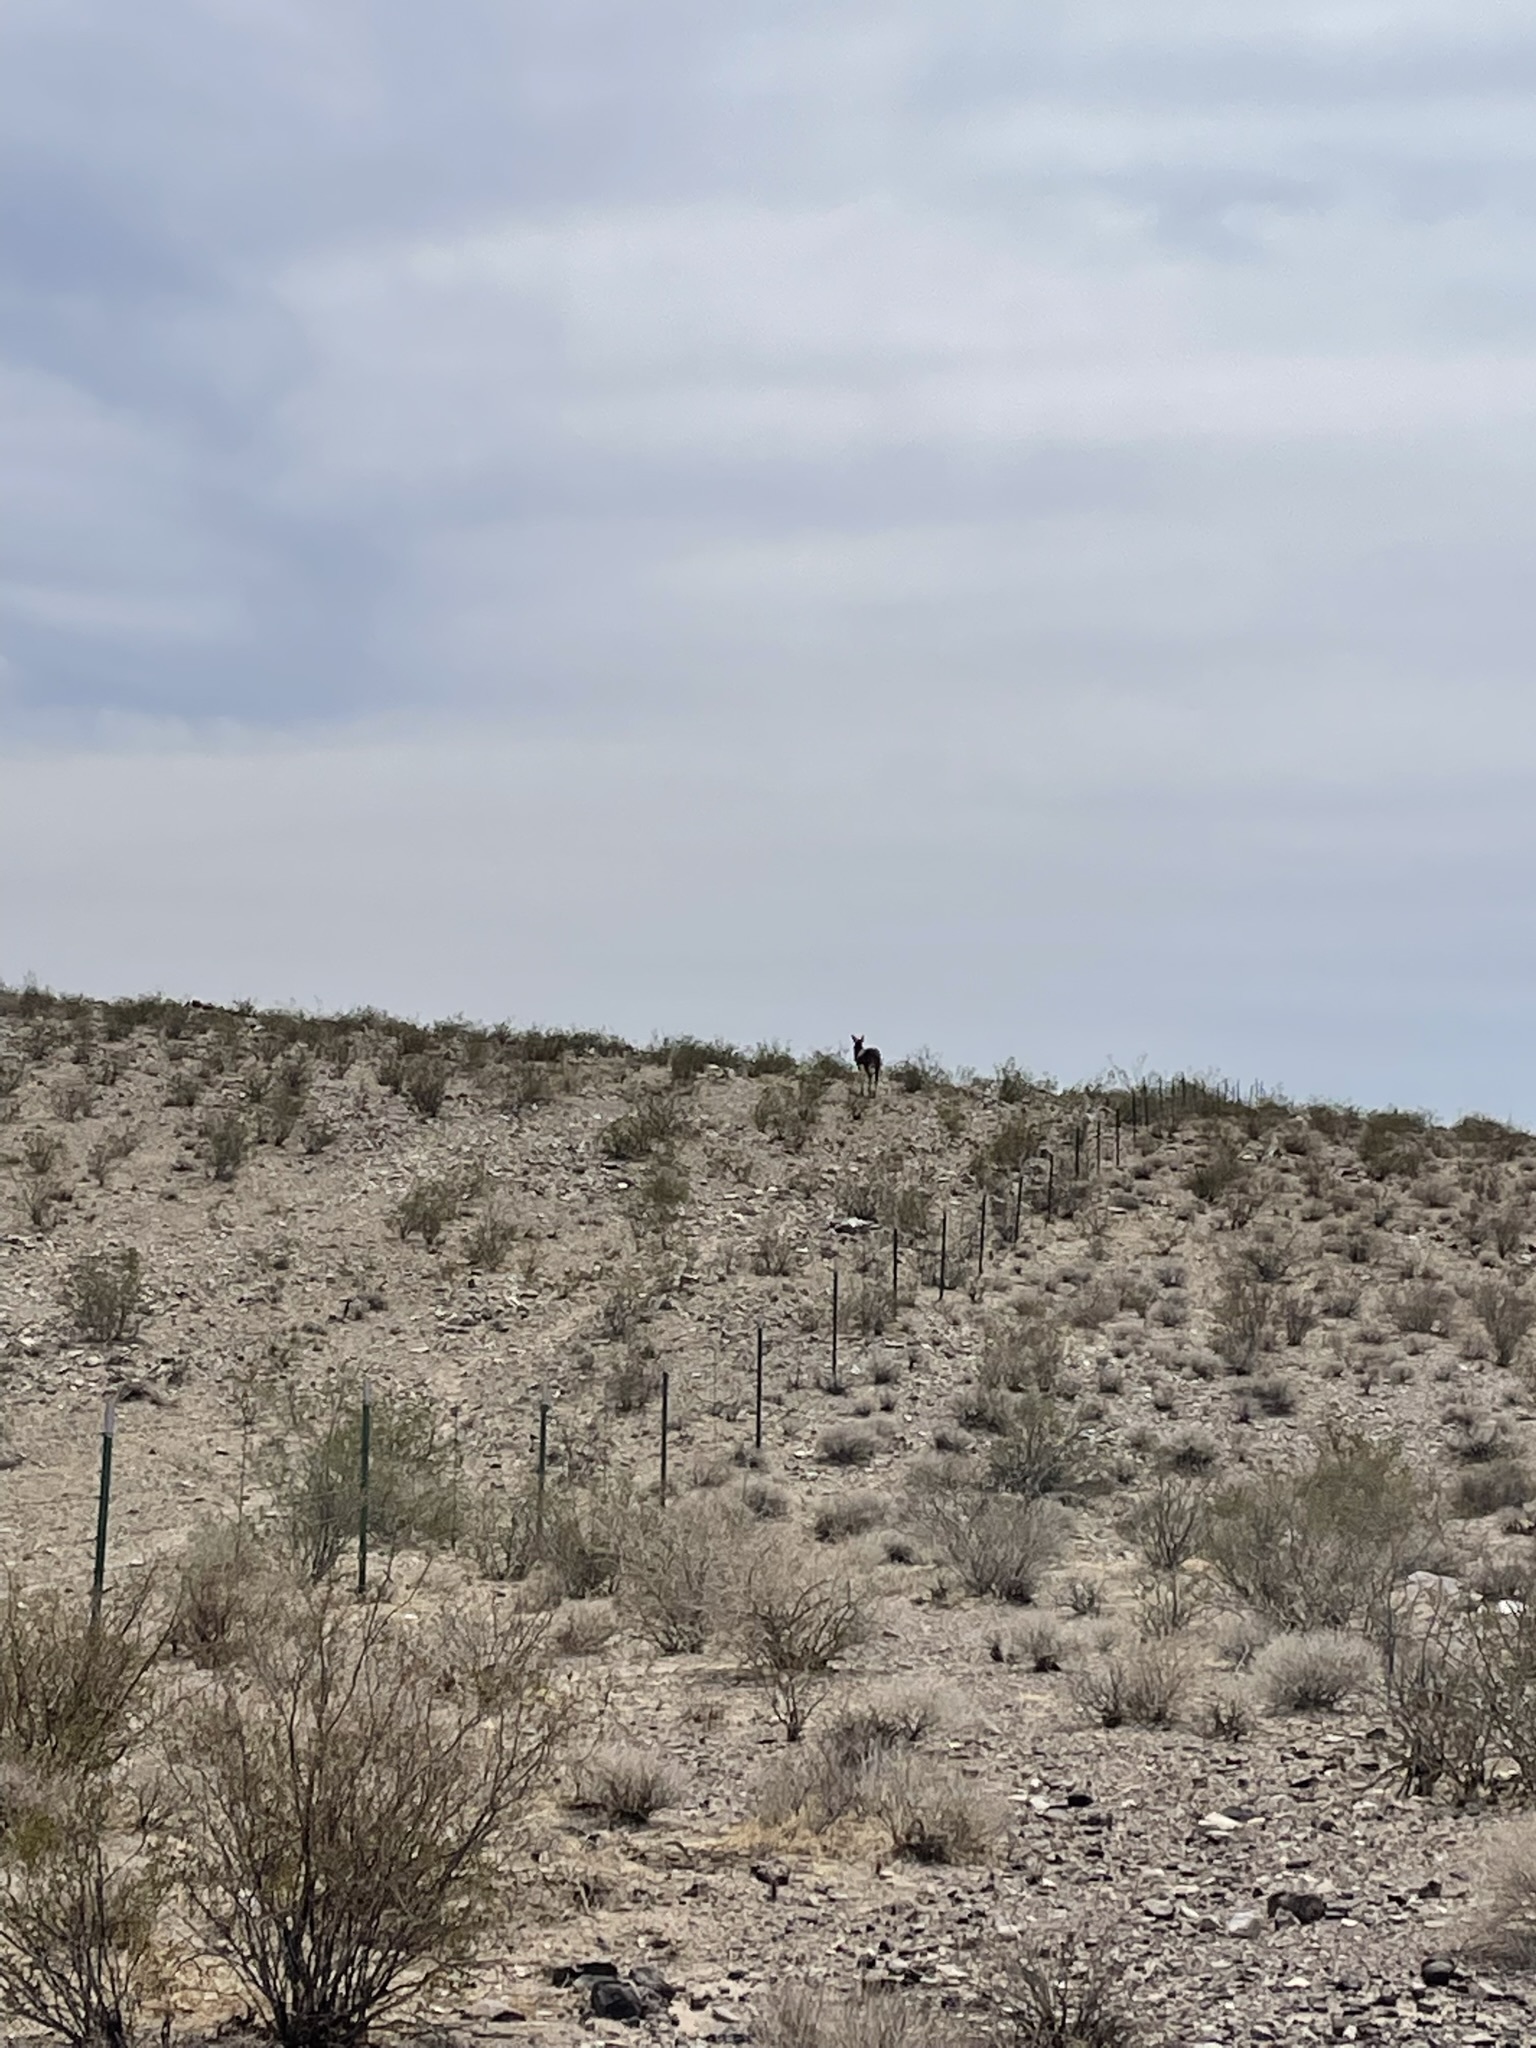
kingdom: Animalia
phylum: Chordata
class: Mammalia
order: Perissodactyla
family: Equidae
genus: Equus
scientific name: Equus asinus
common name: Ass
